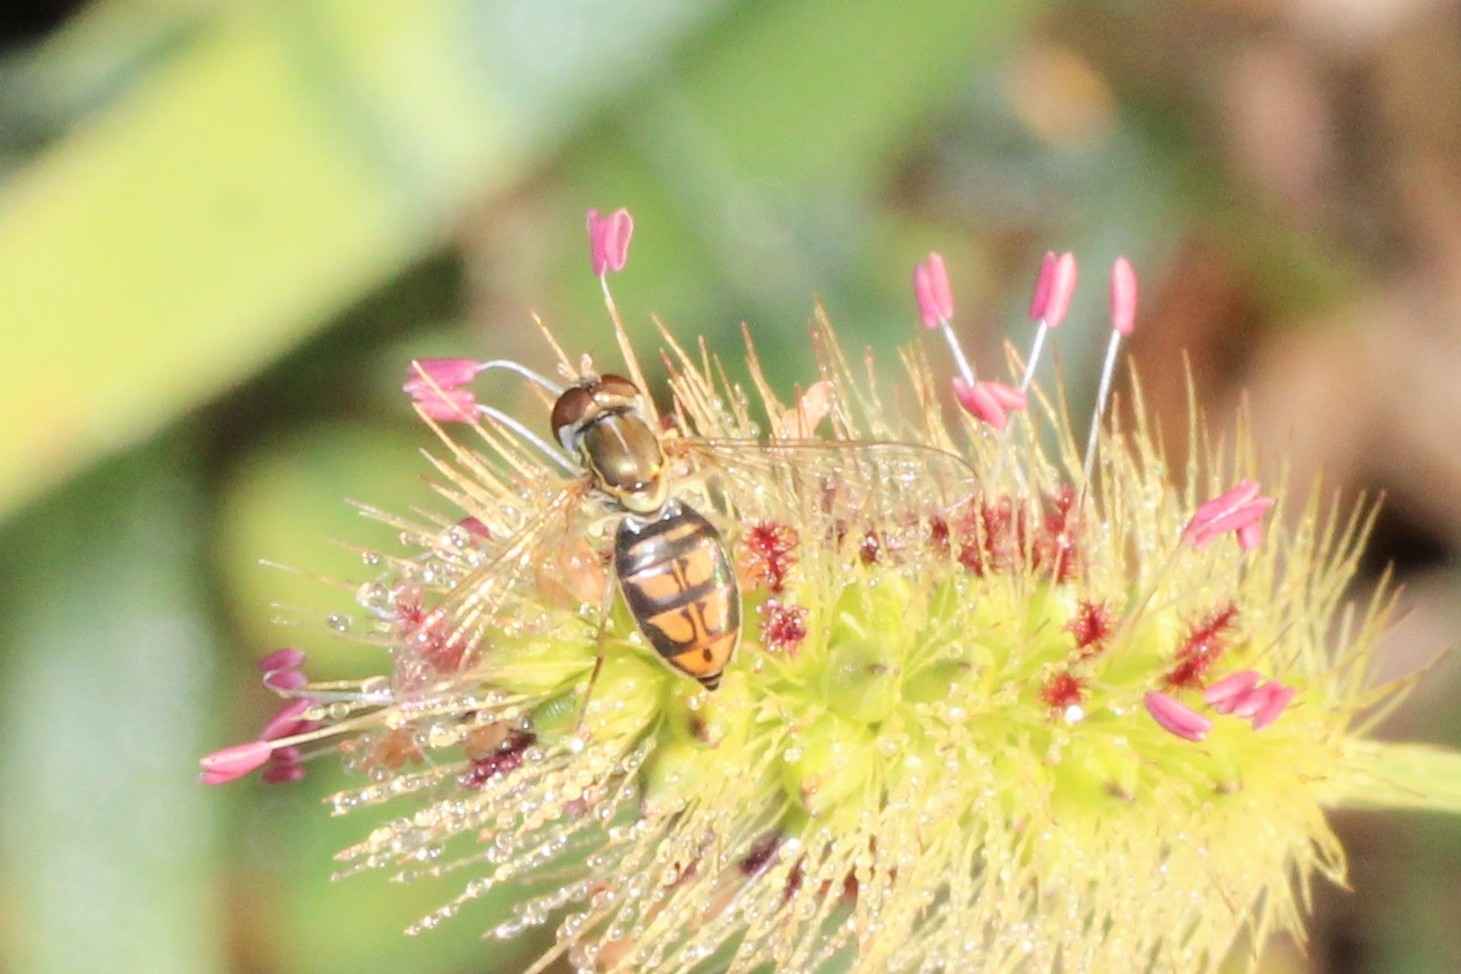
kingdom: Animalia
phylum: Arthropoda
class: Insecta
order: Diptera
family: Syrphidae
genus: Toxomerus
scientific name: Toxomerus marginatus
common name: Syrphid fly
